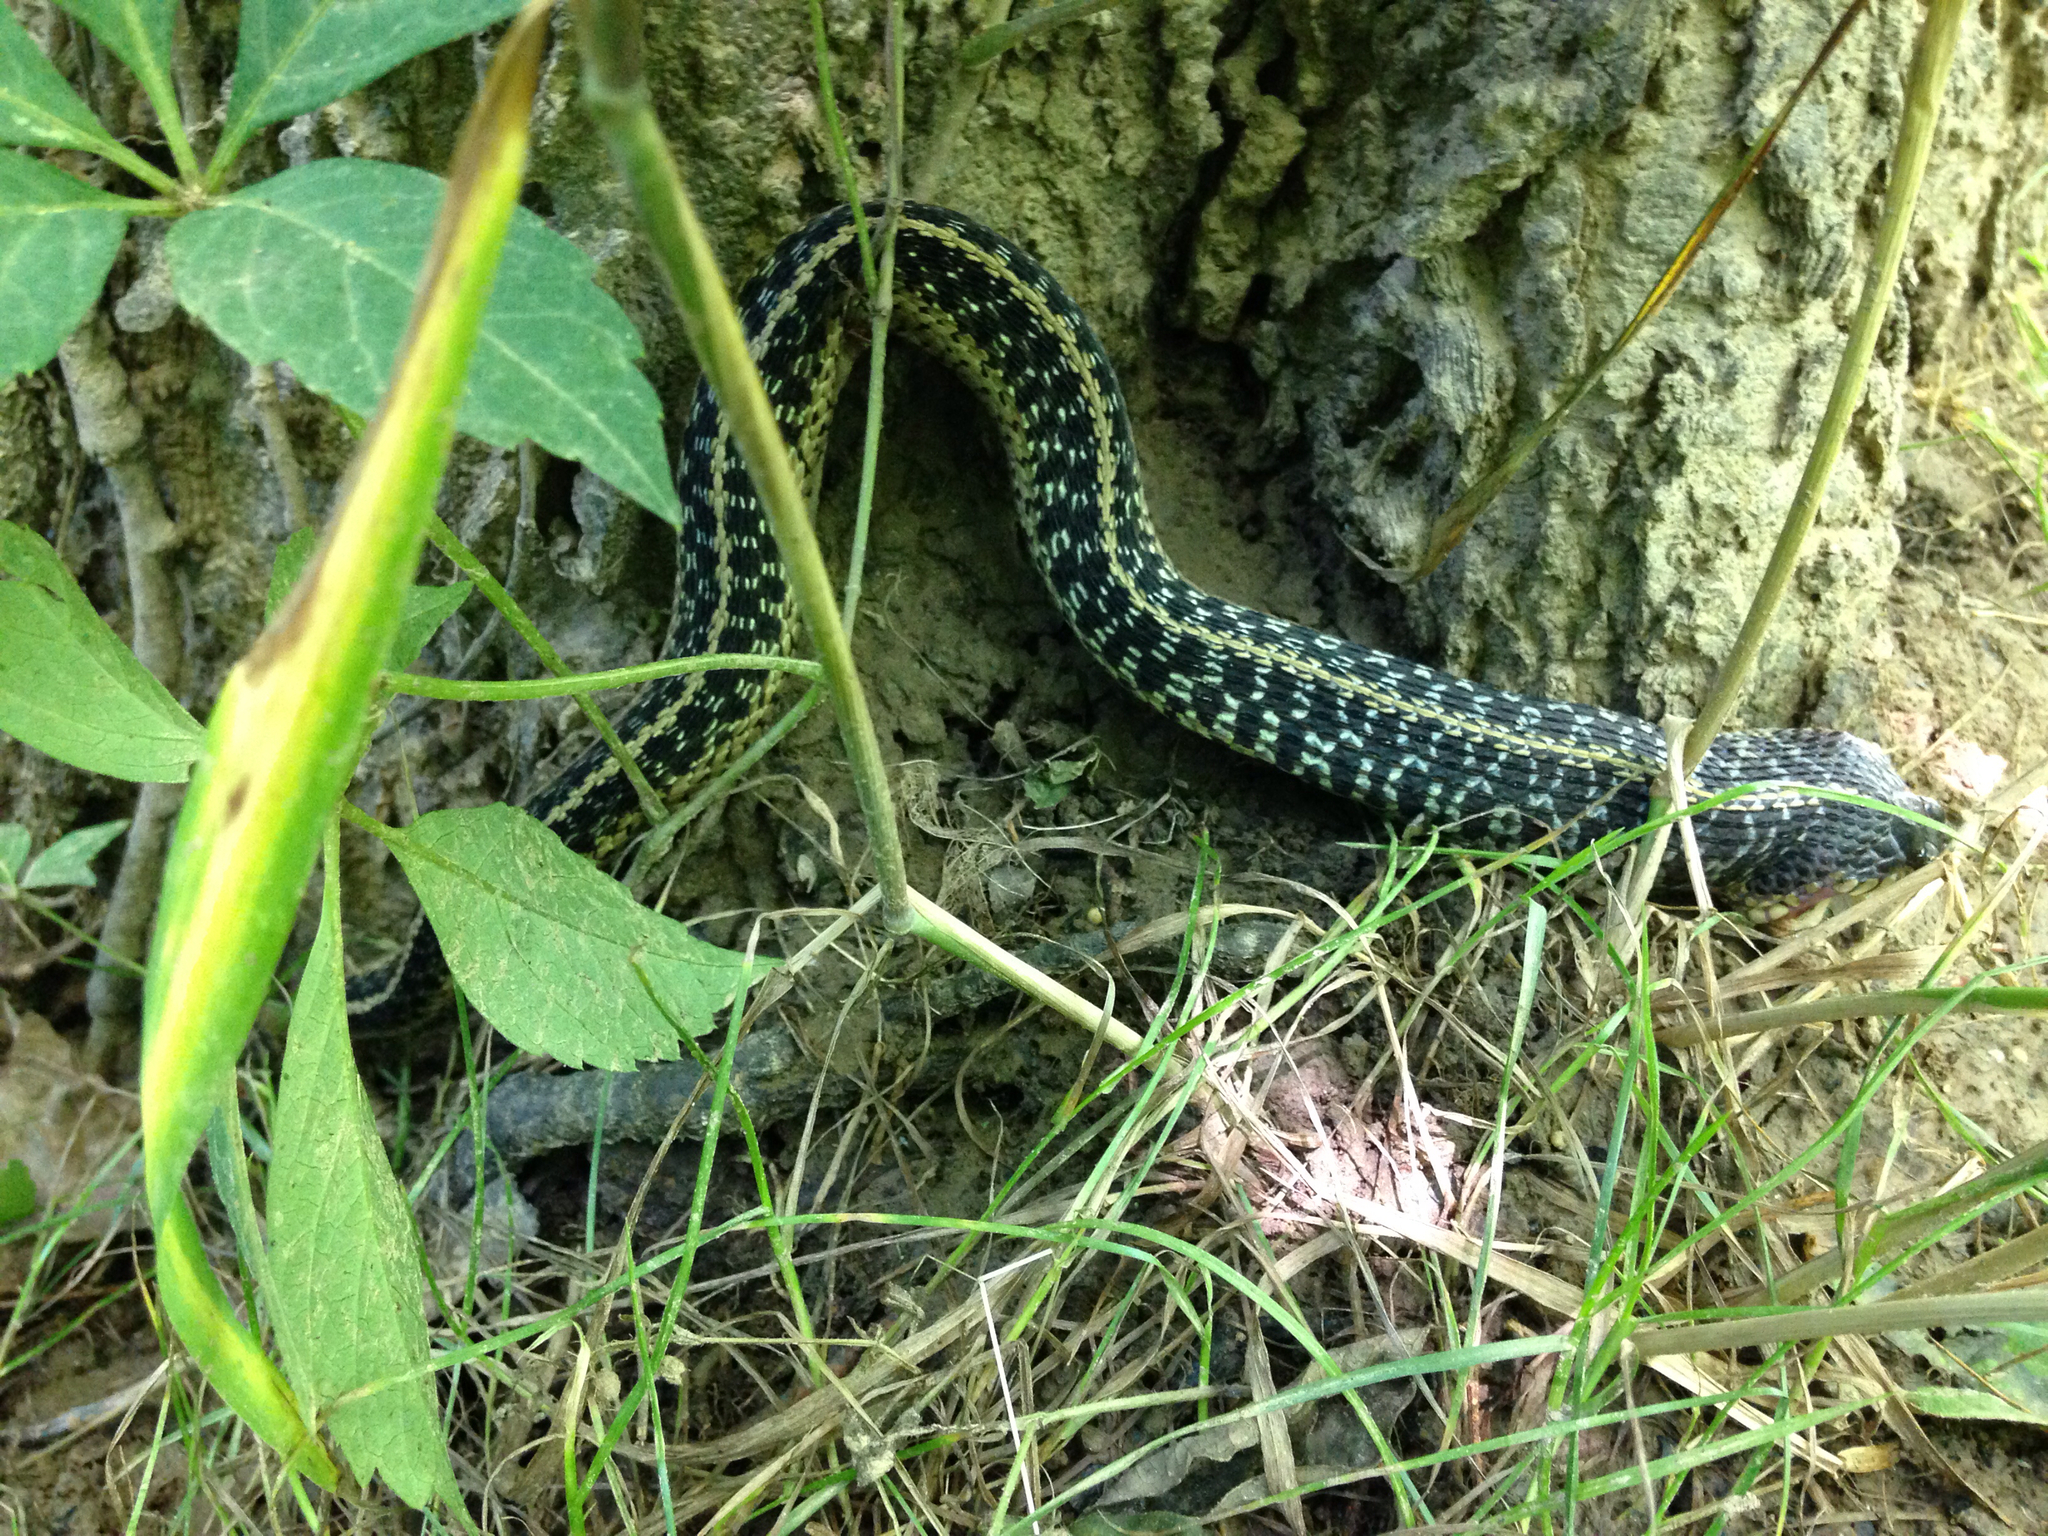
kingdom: Animalia
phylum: Chordata
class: Squamata
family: Colubridae
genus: Thamnophis
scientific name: Thamnophis sirtalis
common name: Common garter snake
